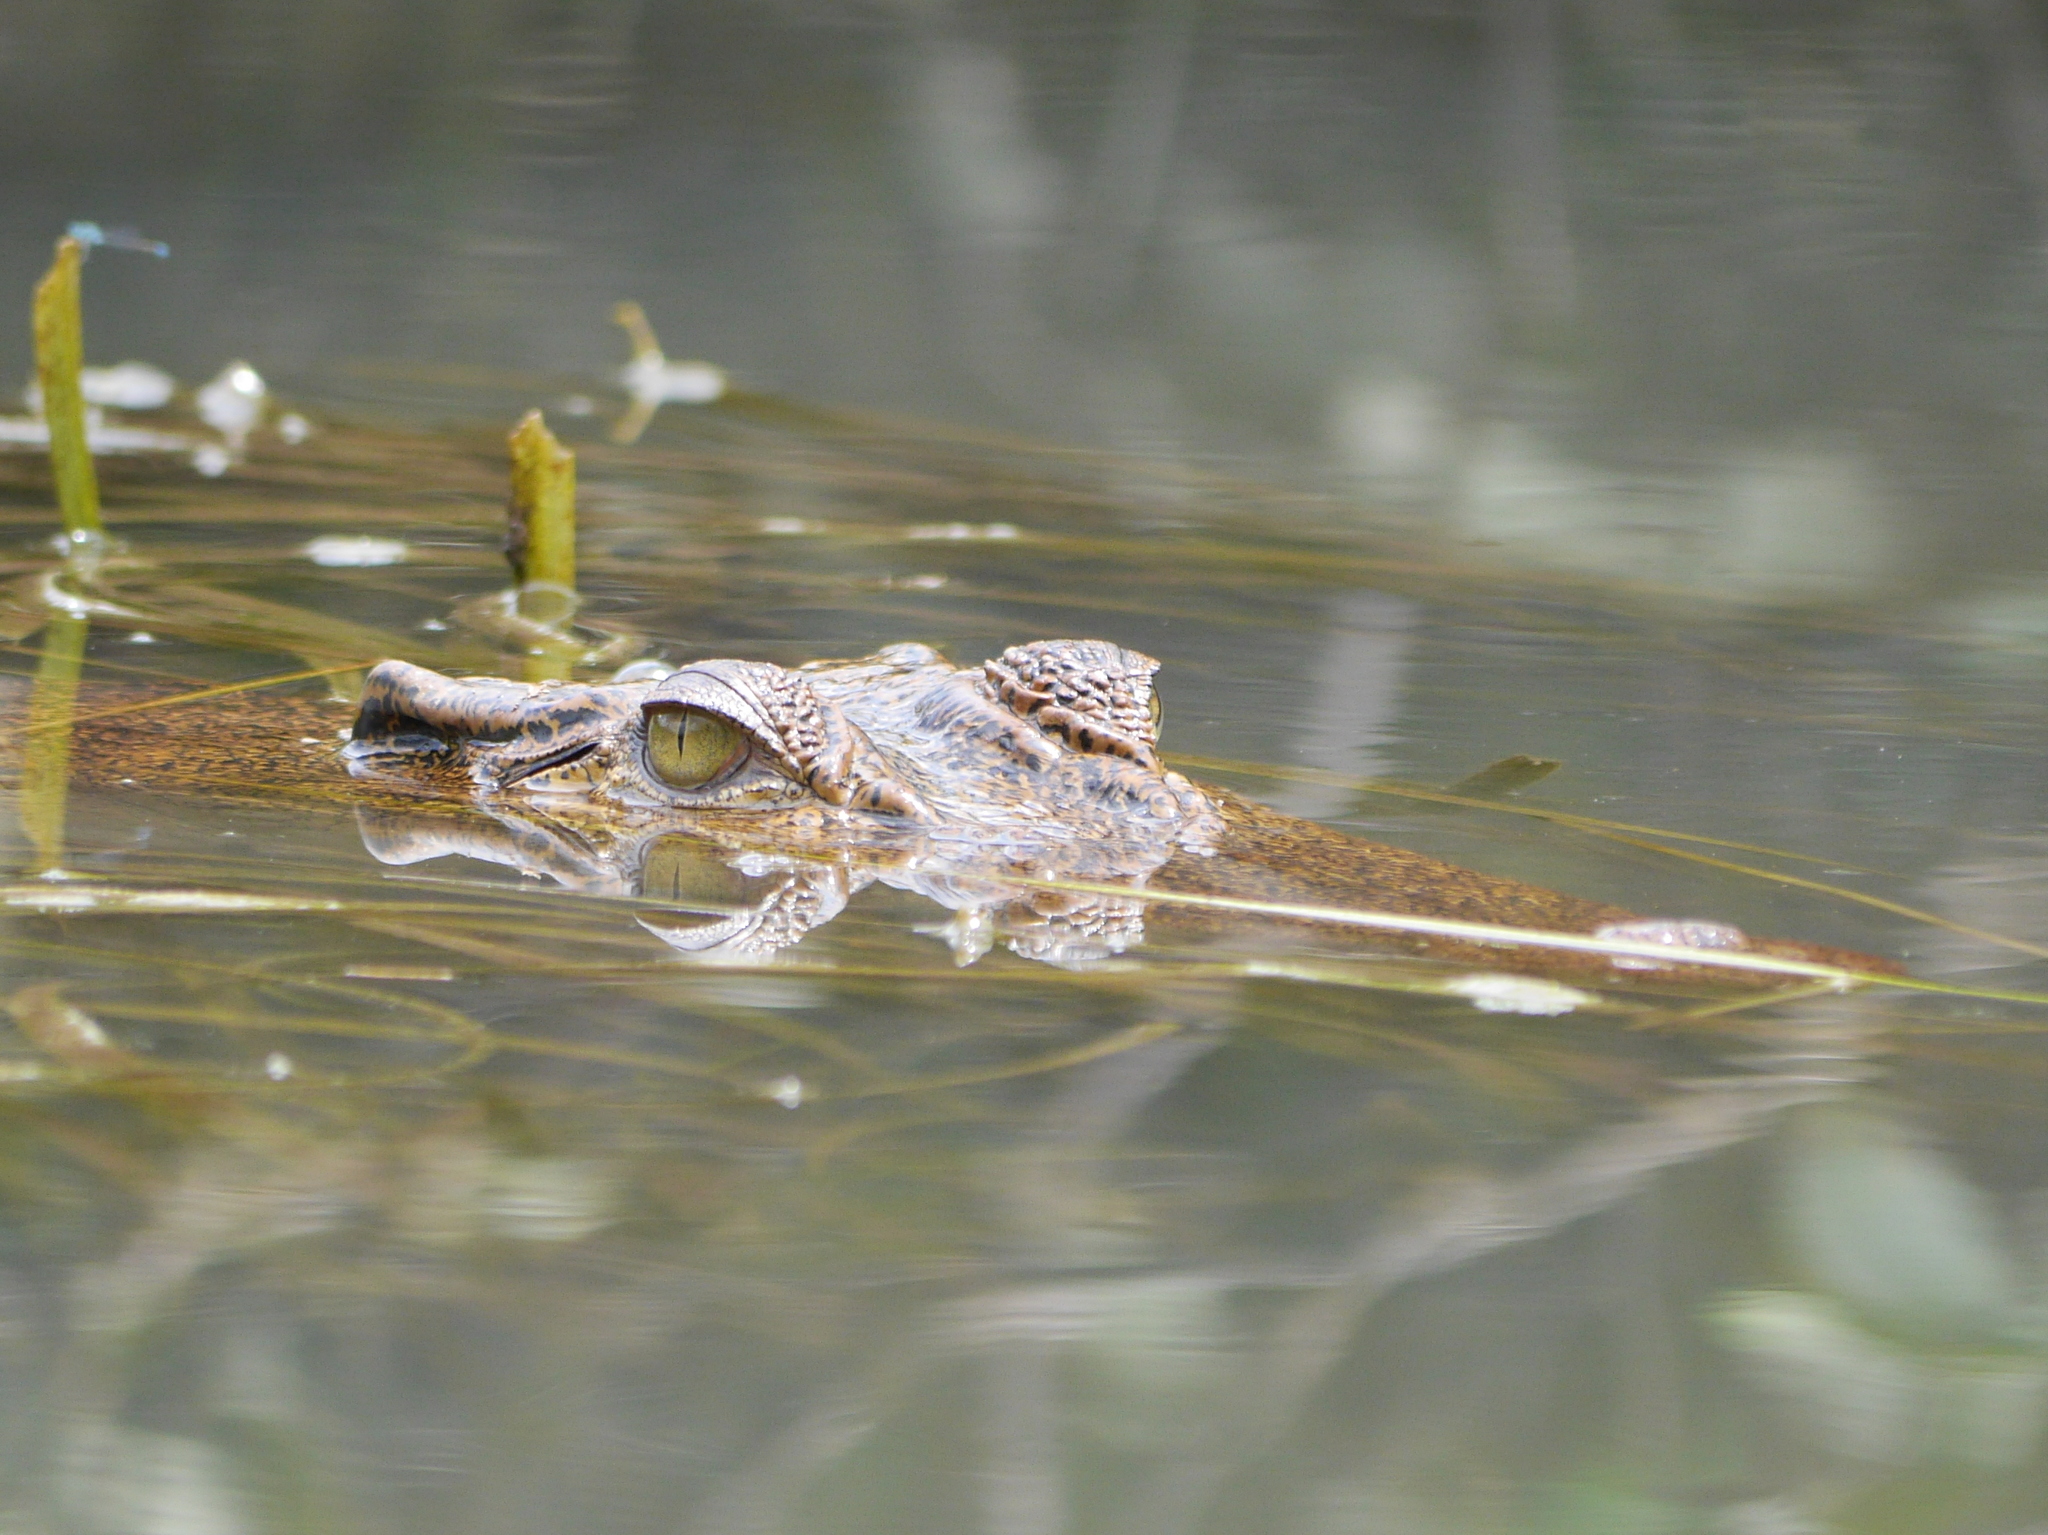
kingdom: Animalia
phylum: Chordata
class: Crocodylia
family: Crocodylidae
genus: Crocodylus
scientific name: Crocodylus porosus
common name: Saltwater crocodile
